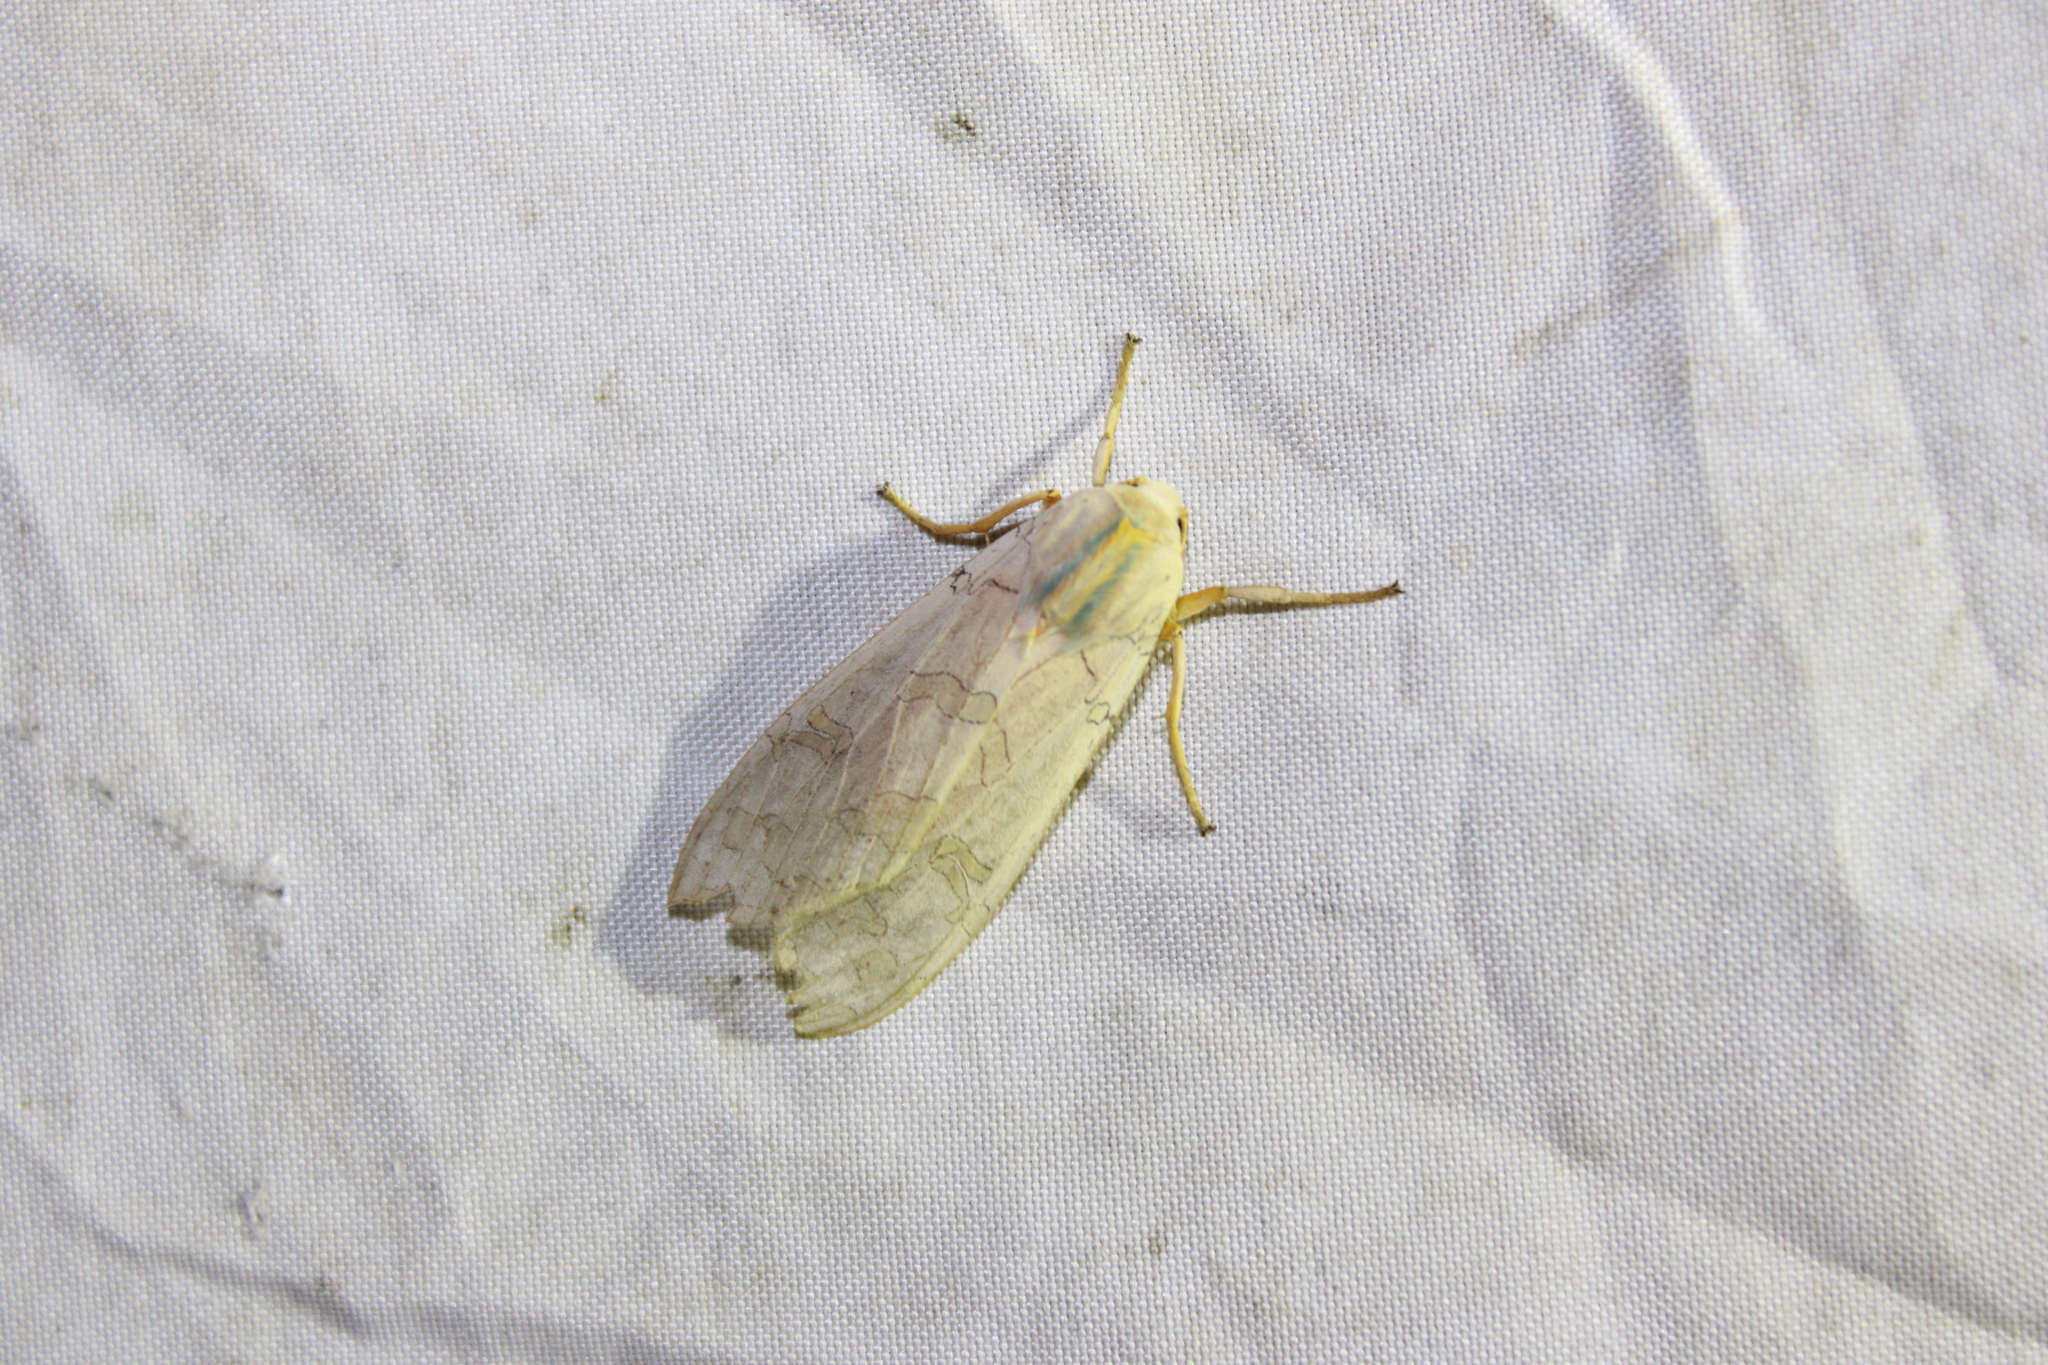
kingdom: Animalia
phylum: Arthropoda
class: Insecta
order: Lepidoptera
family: Erebidae
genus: Halysidota
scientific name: Halysidota
